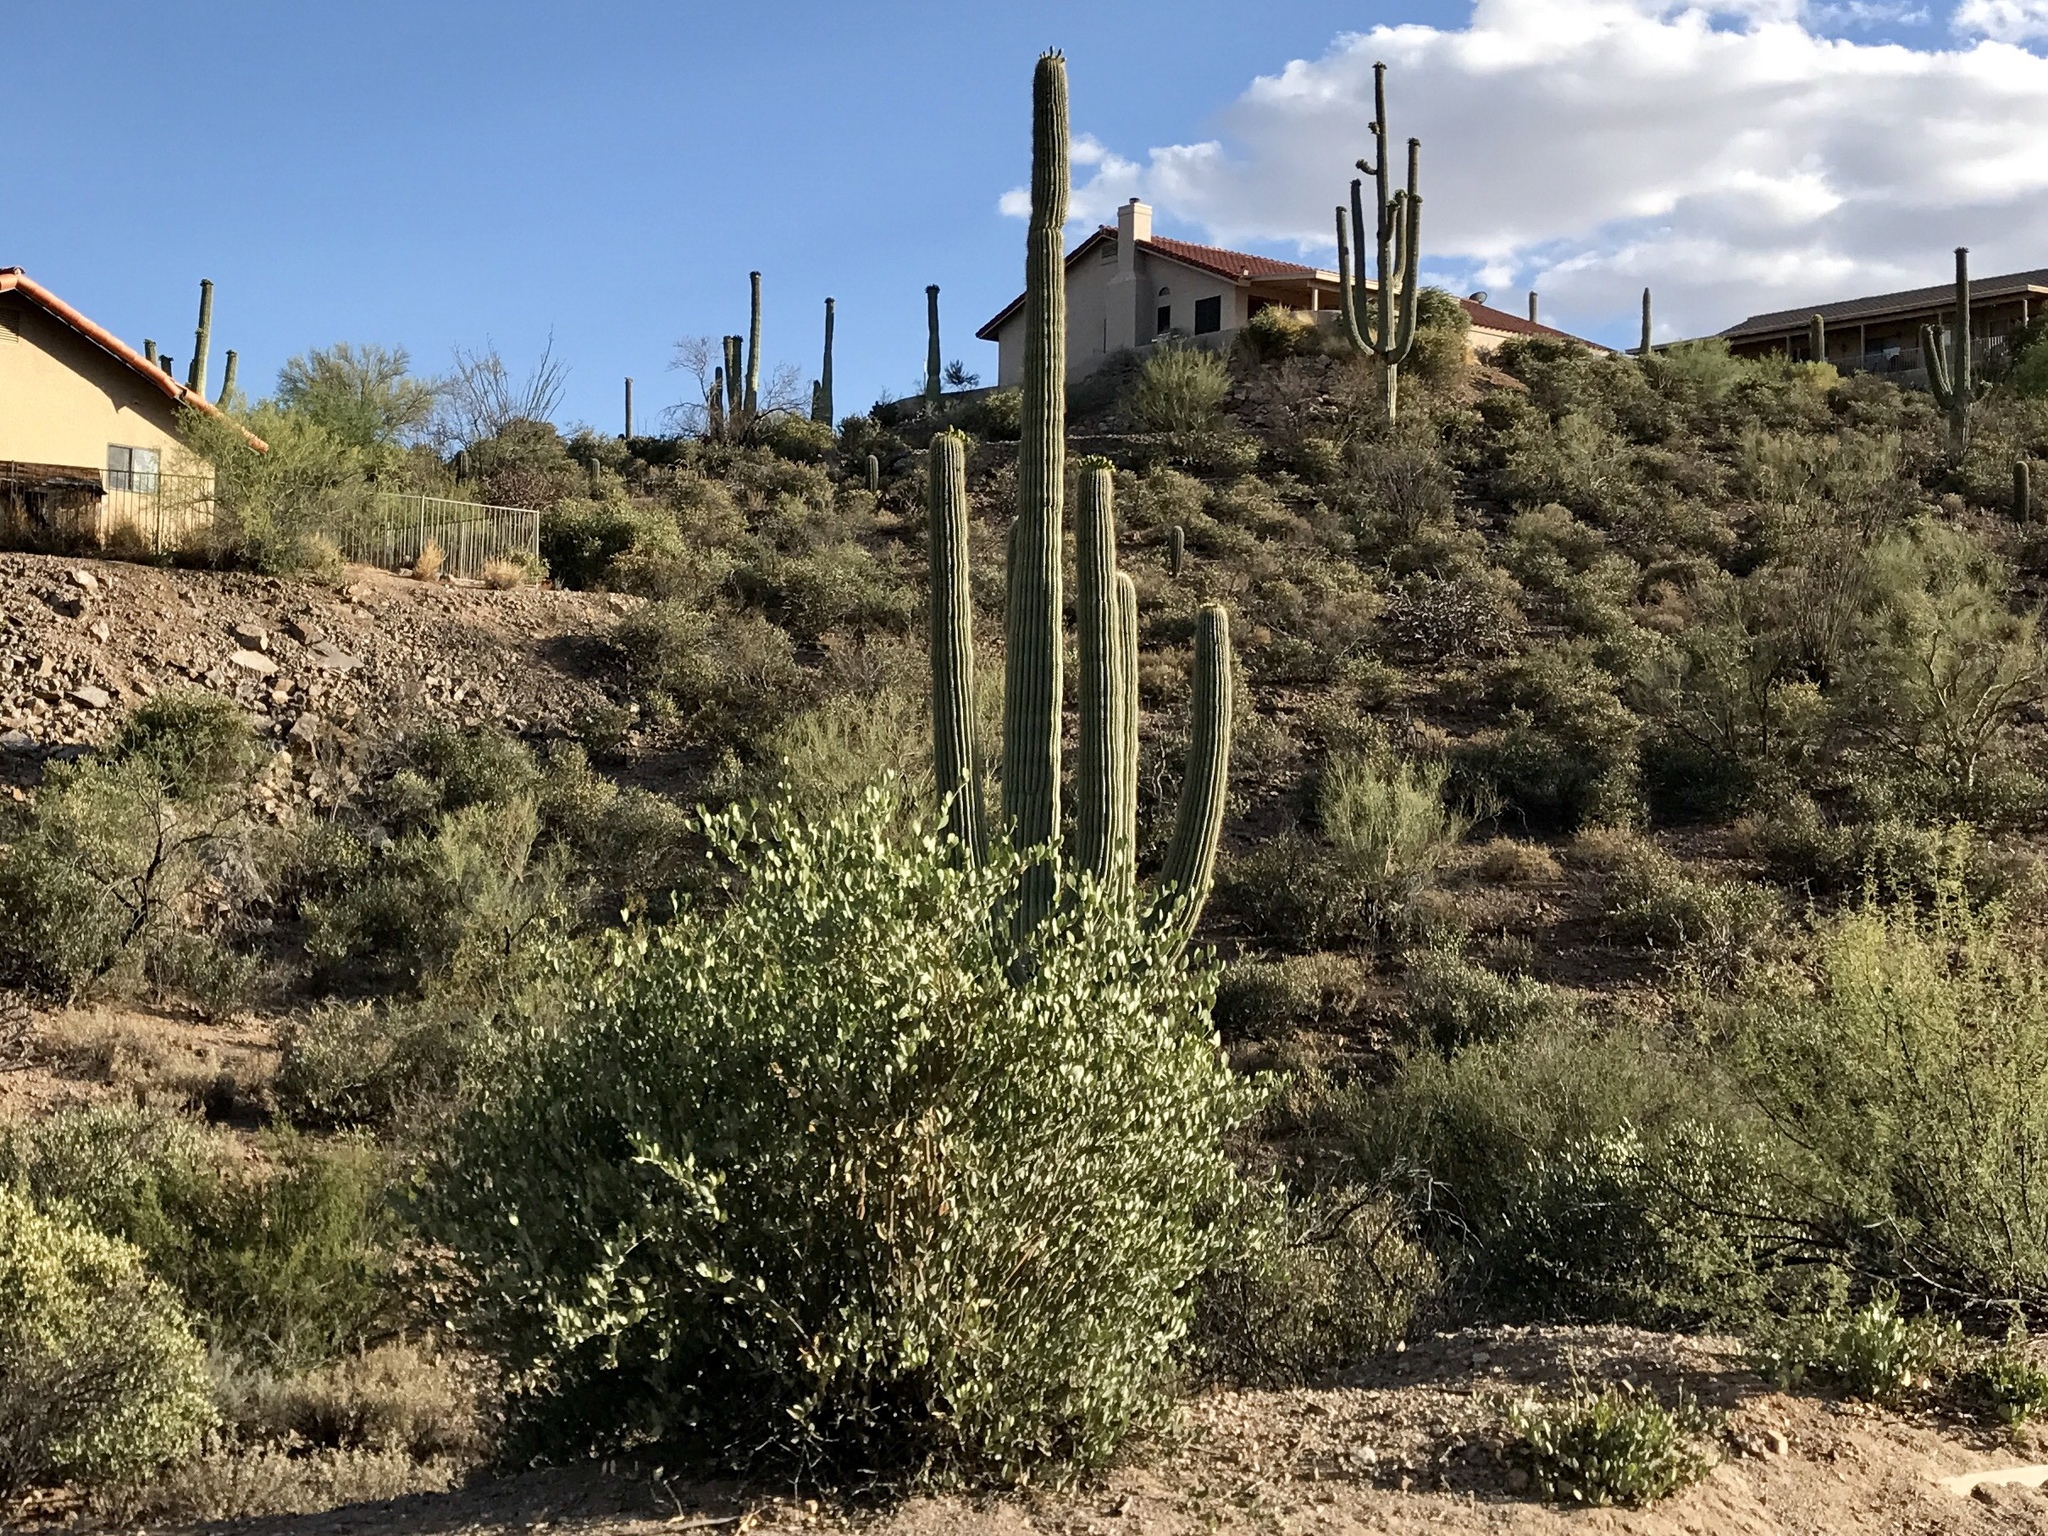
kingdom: Plantae
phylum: Tracheophyta
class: Magnoliopsida
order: Caryophyllales
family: Cactaceae
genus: Carnegiea
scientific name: Carnegiea gigantea
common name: Saguaro
